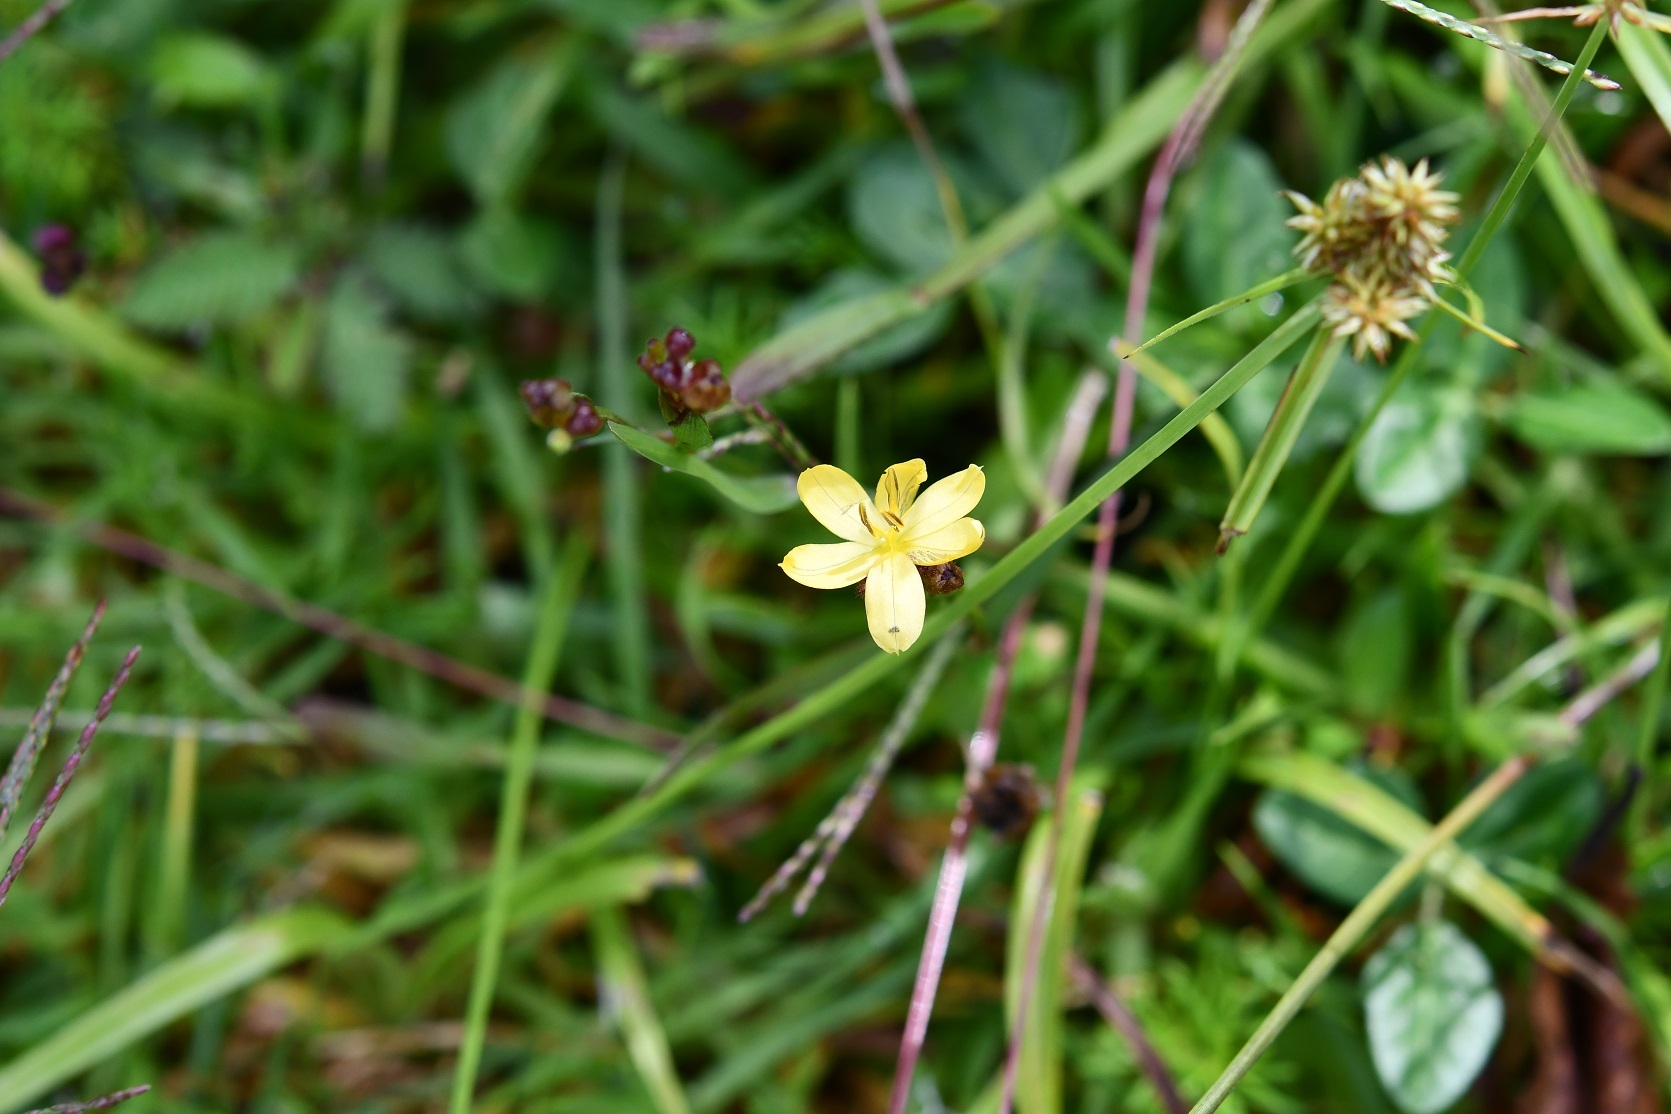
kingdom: Plantae
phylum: Tracheophyta
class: Liliopsida
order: Asparagales
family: Iridaceae
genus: Sisyrinchium
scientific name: Sisyrinchium tenuifolium
